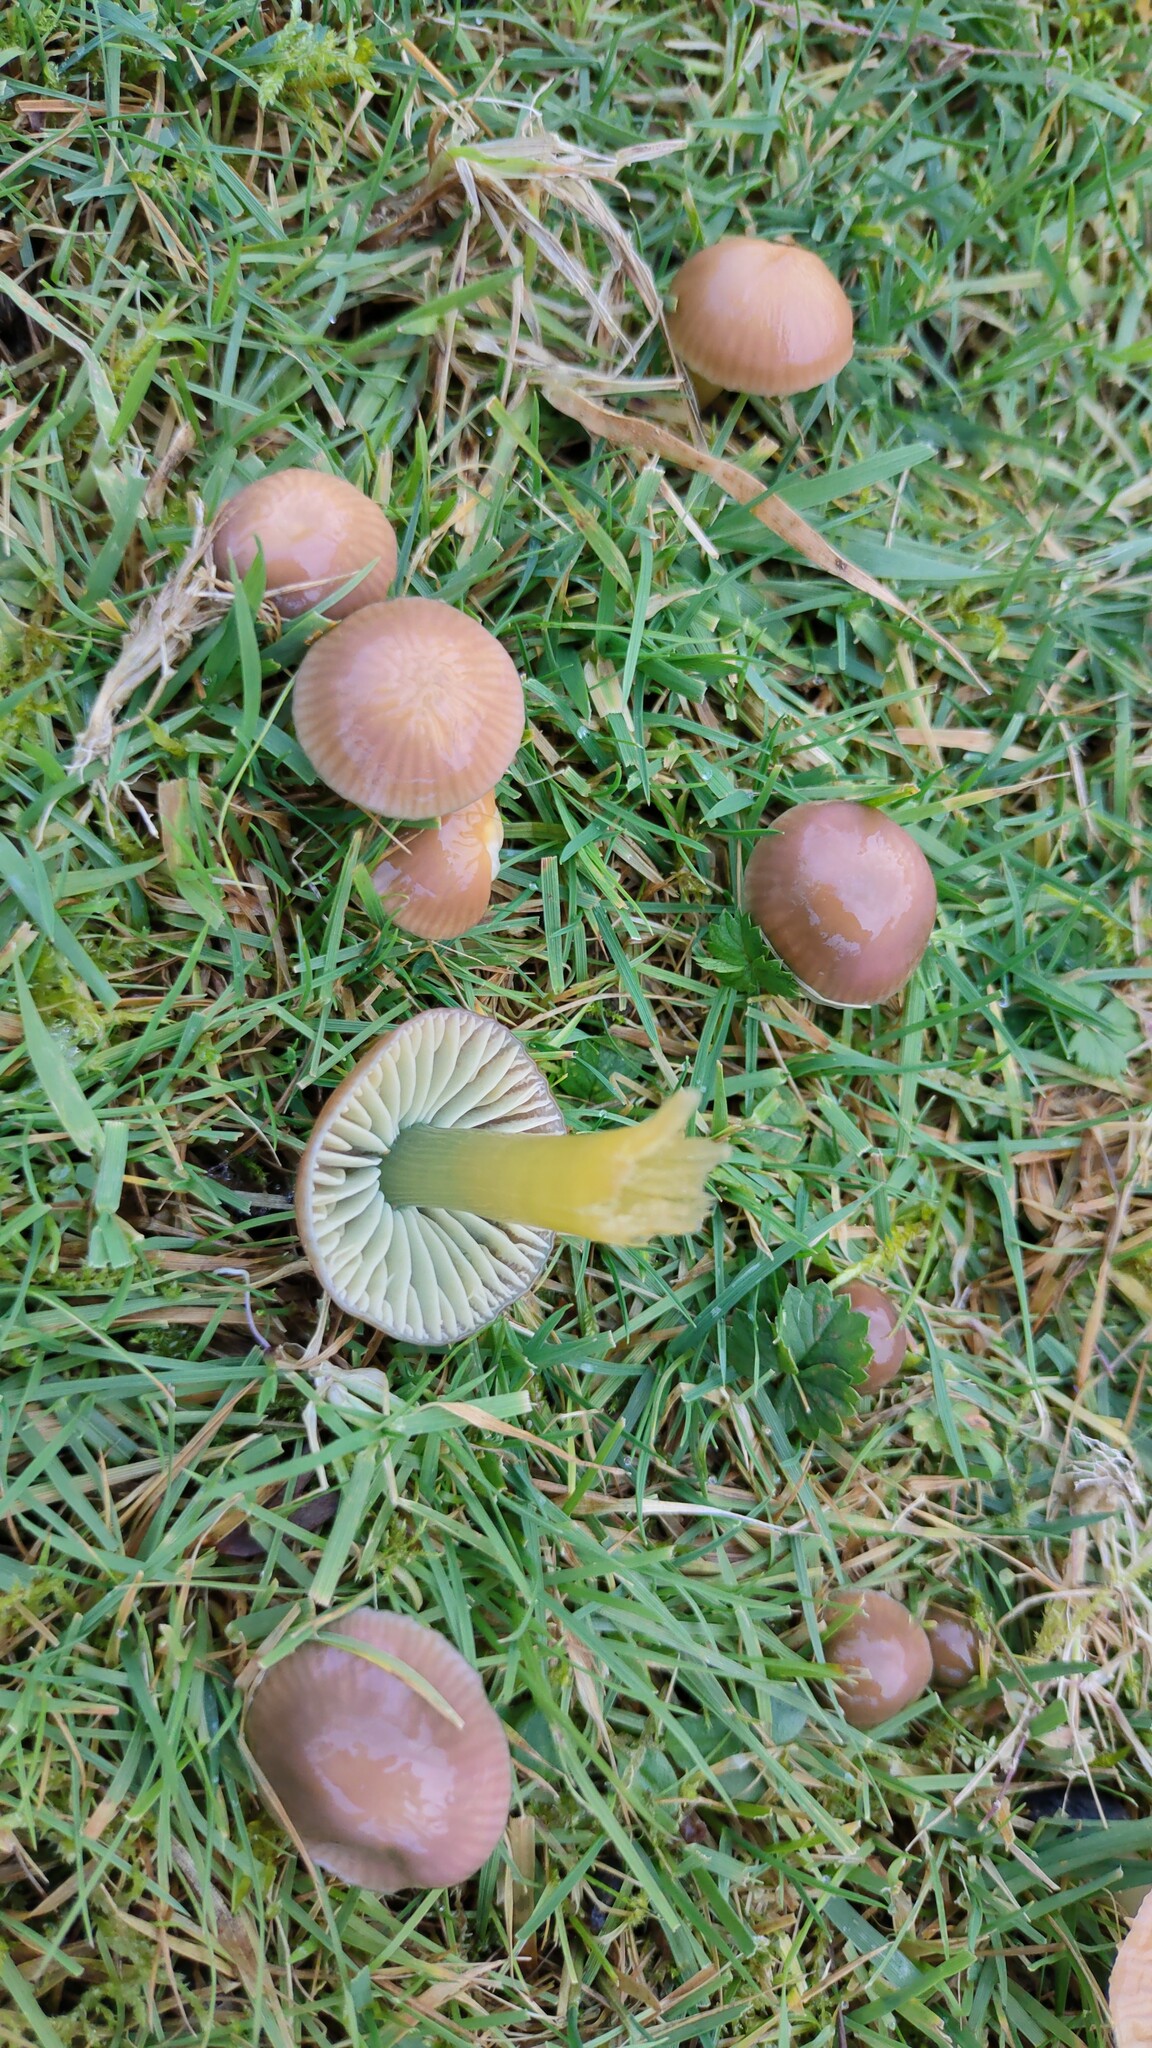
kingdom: Fungi
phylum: Basidiomycota
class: Agaricomycetes
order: Agaricales
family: Hygrophoraceae
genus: Gliophorus
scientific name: Gliophorus psittacinus
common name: Parrot wax-cap
